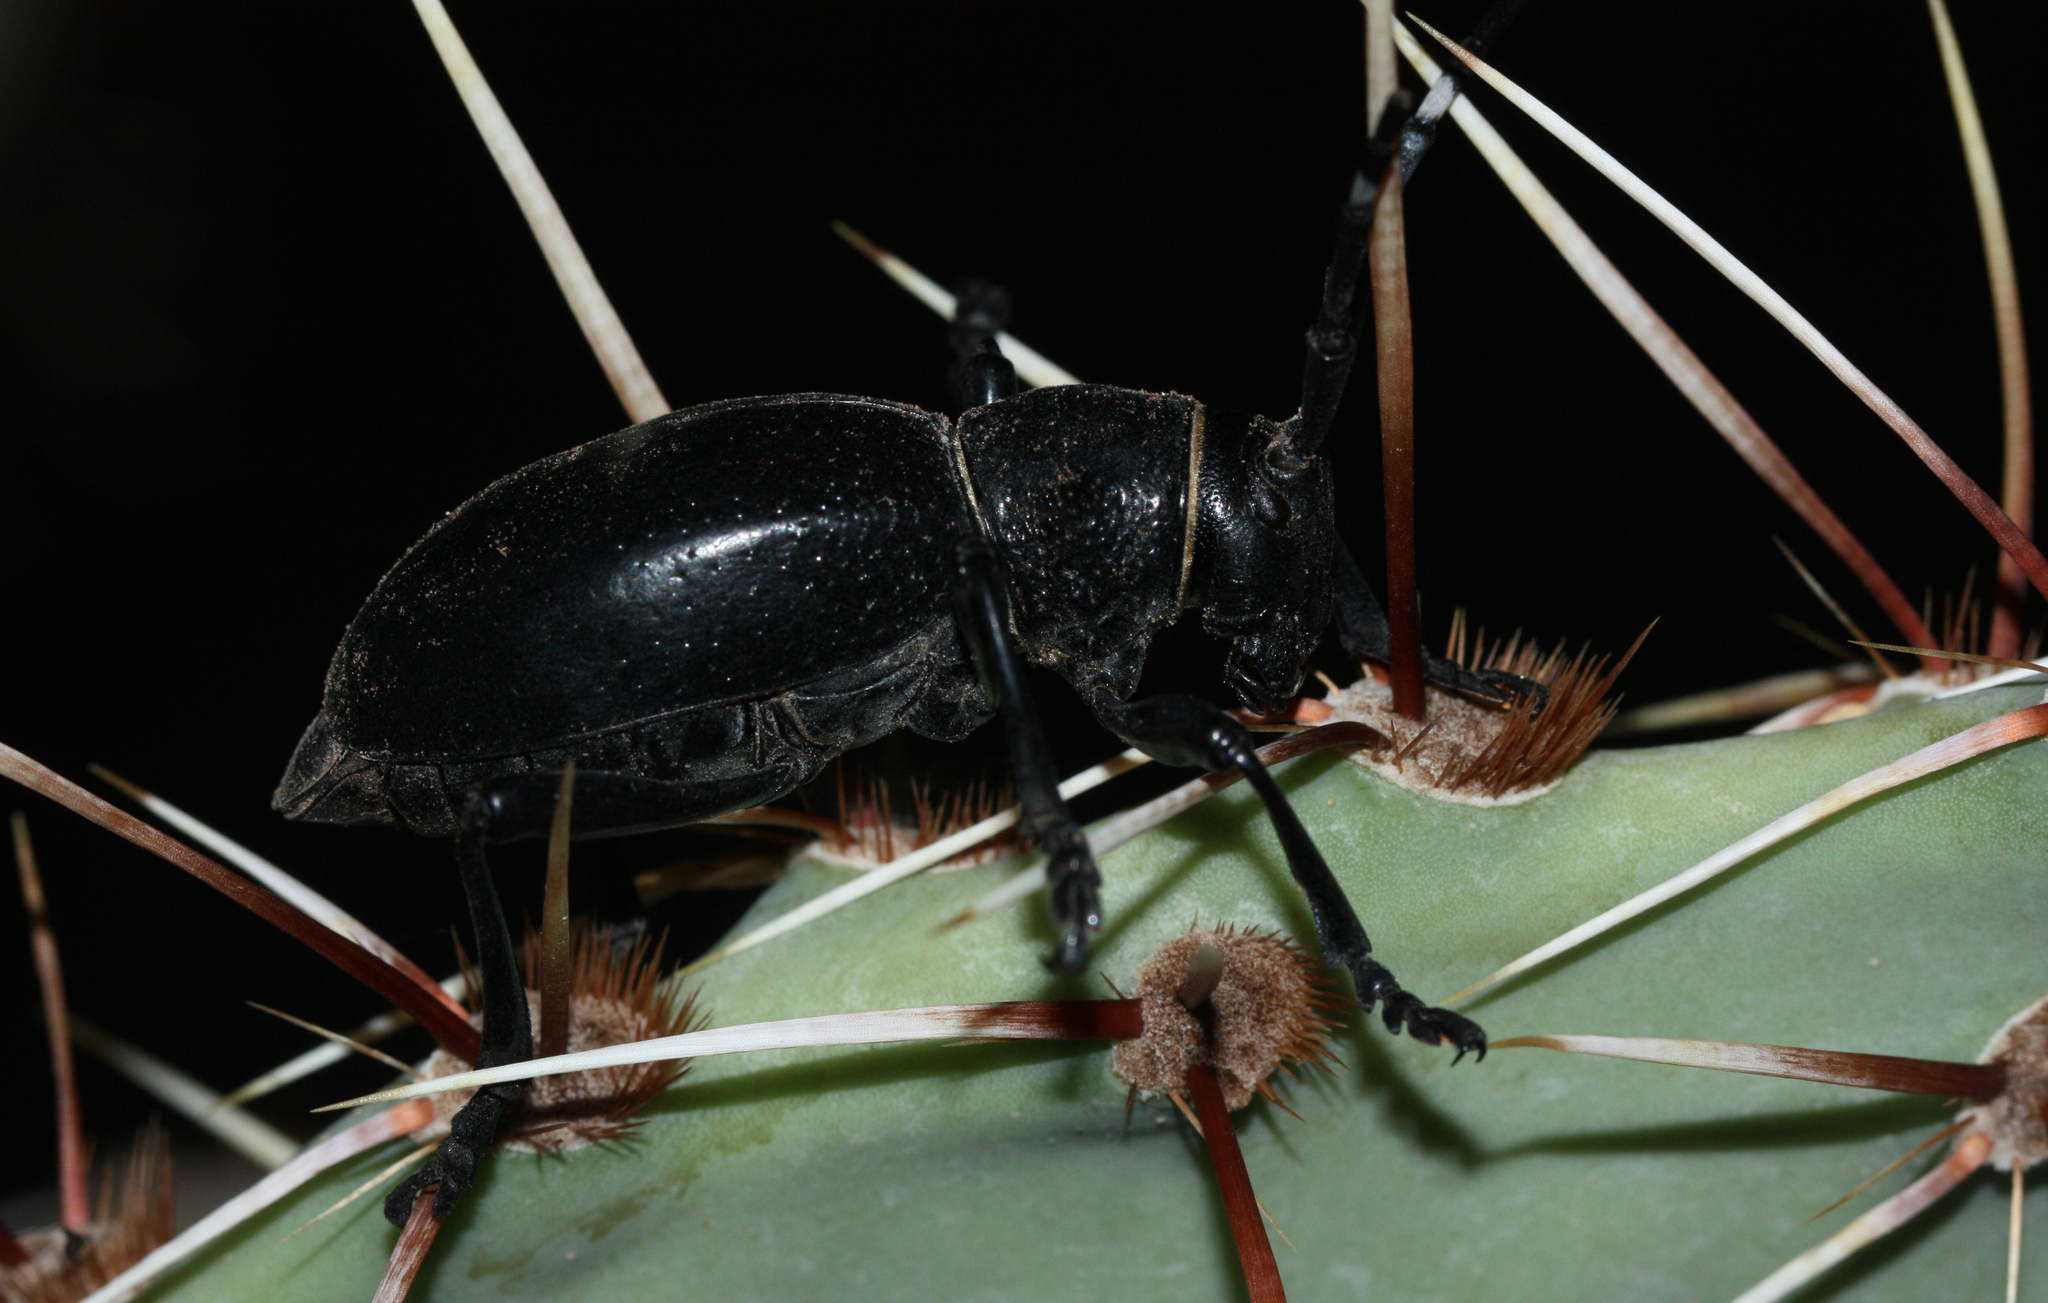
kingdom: Animalia
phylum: Arthropoda
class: Insecta
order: Coleoptera
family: Cerambycidae
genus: Moneilema
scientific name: Moneilema gigas
